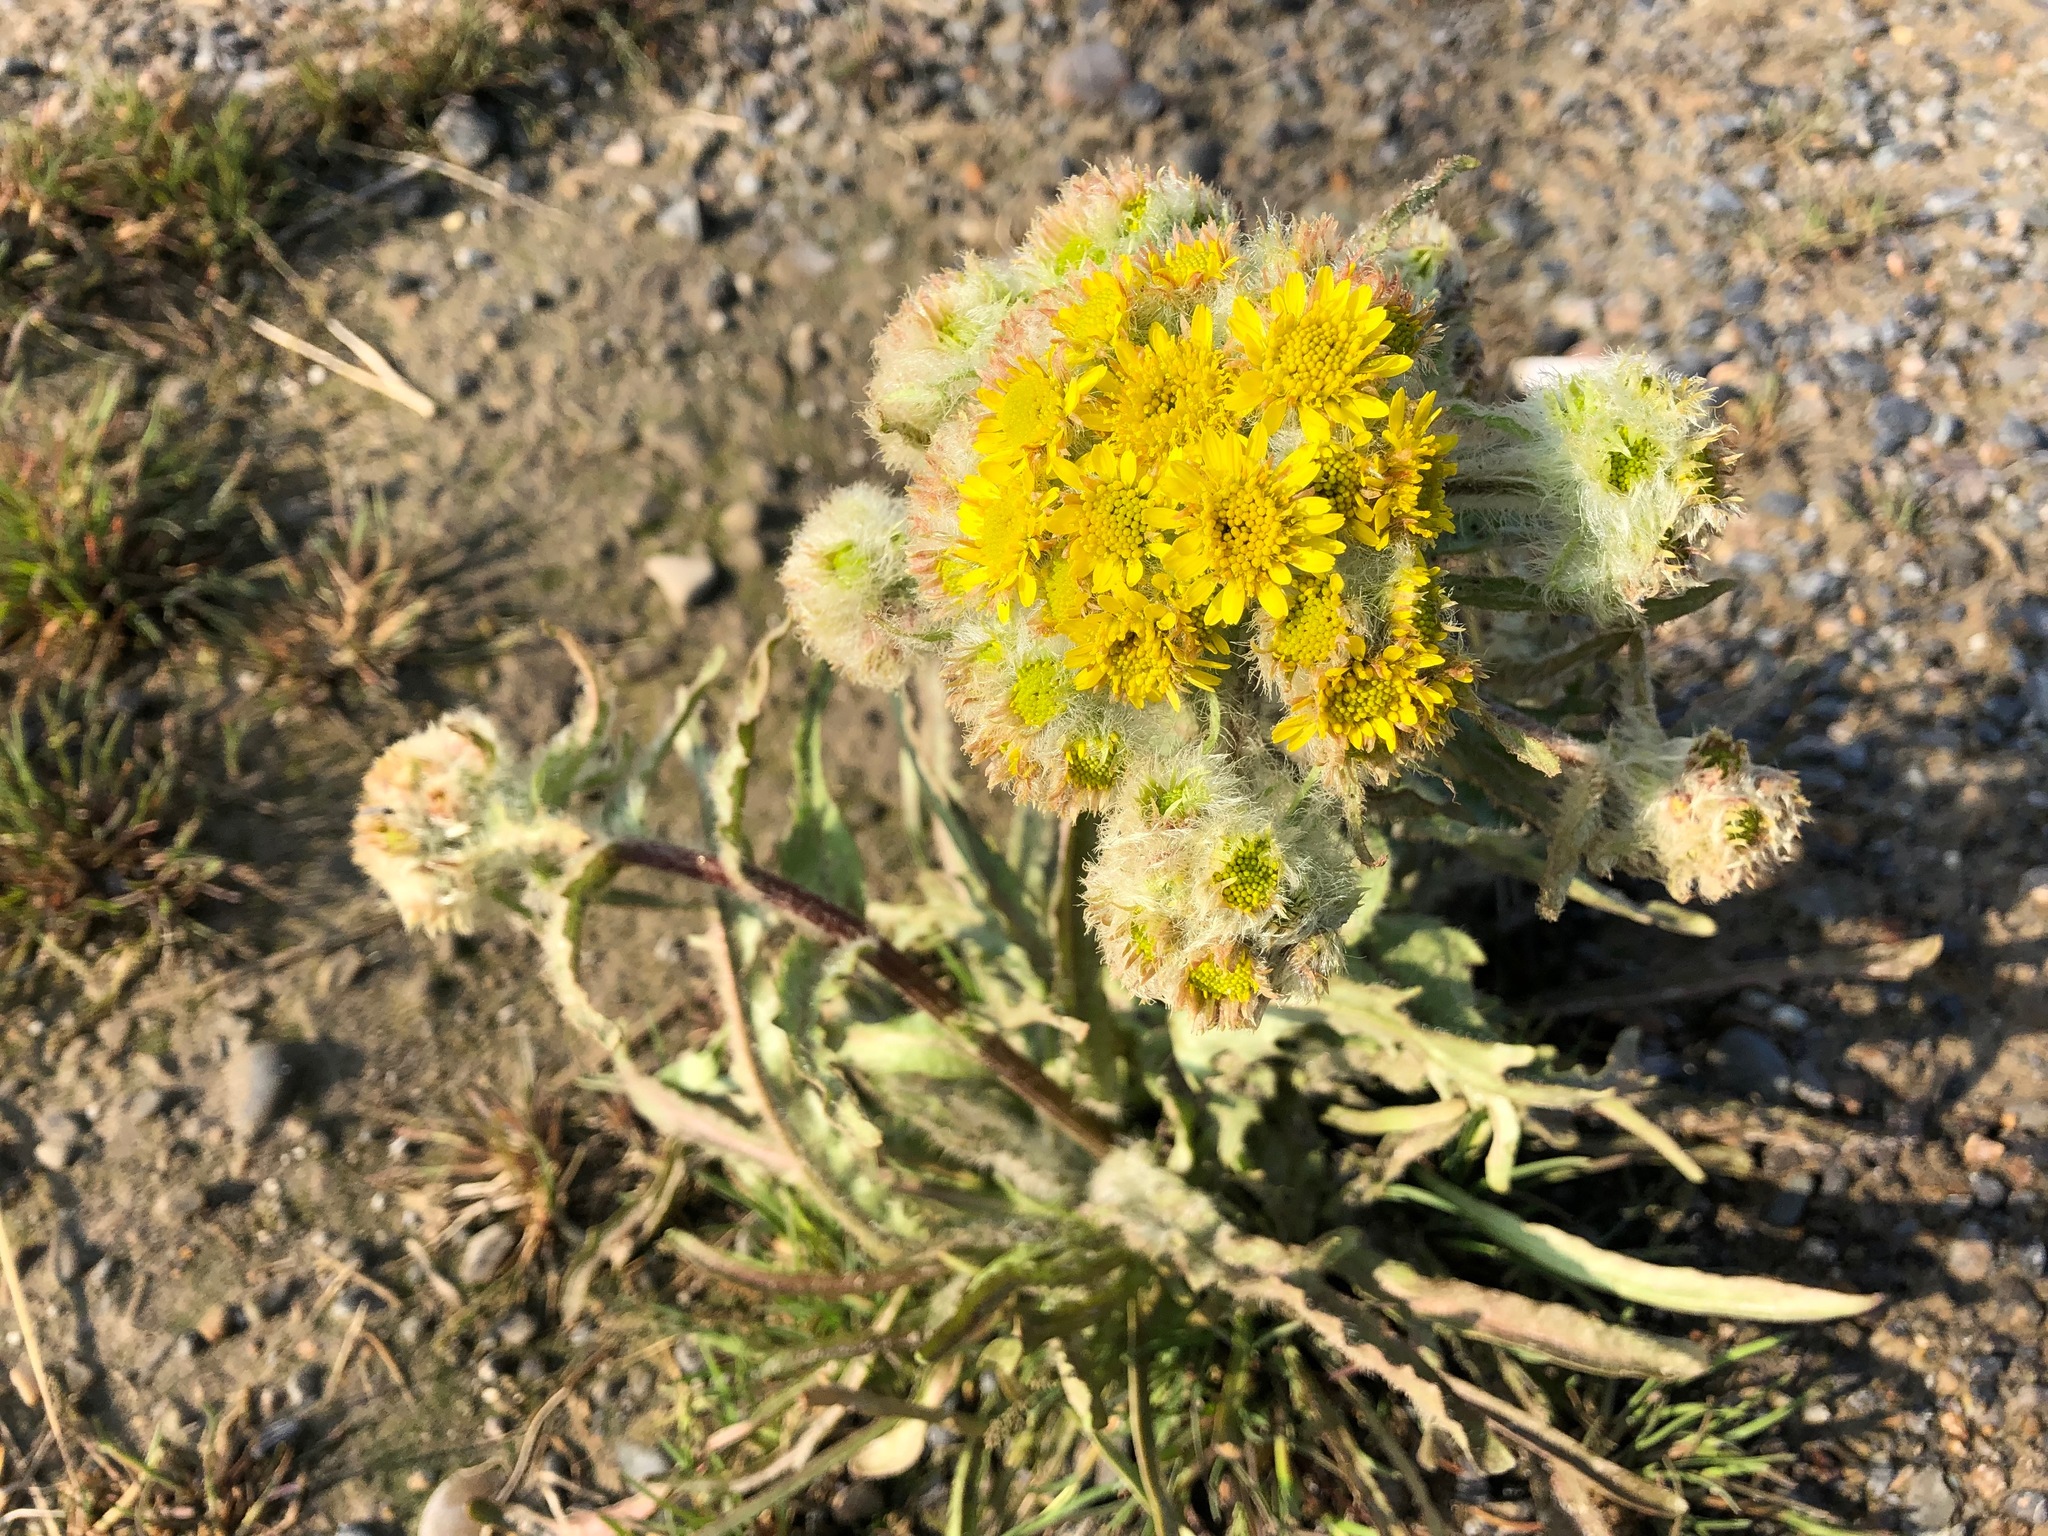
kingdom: Plantae
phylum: Tracheophyta
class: Magnoliopsida
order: Asterales
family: Asteraceae
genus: Tephroseris
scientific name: Tephroseris palustris
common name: Marsh fleawort
